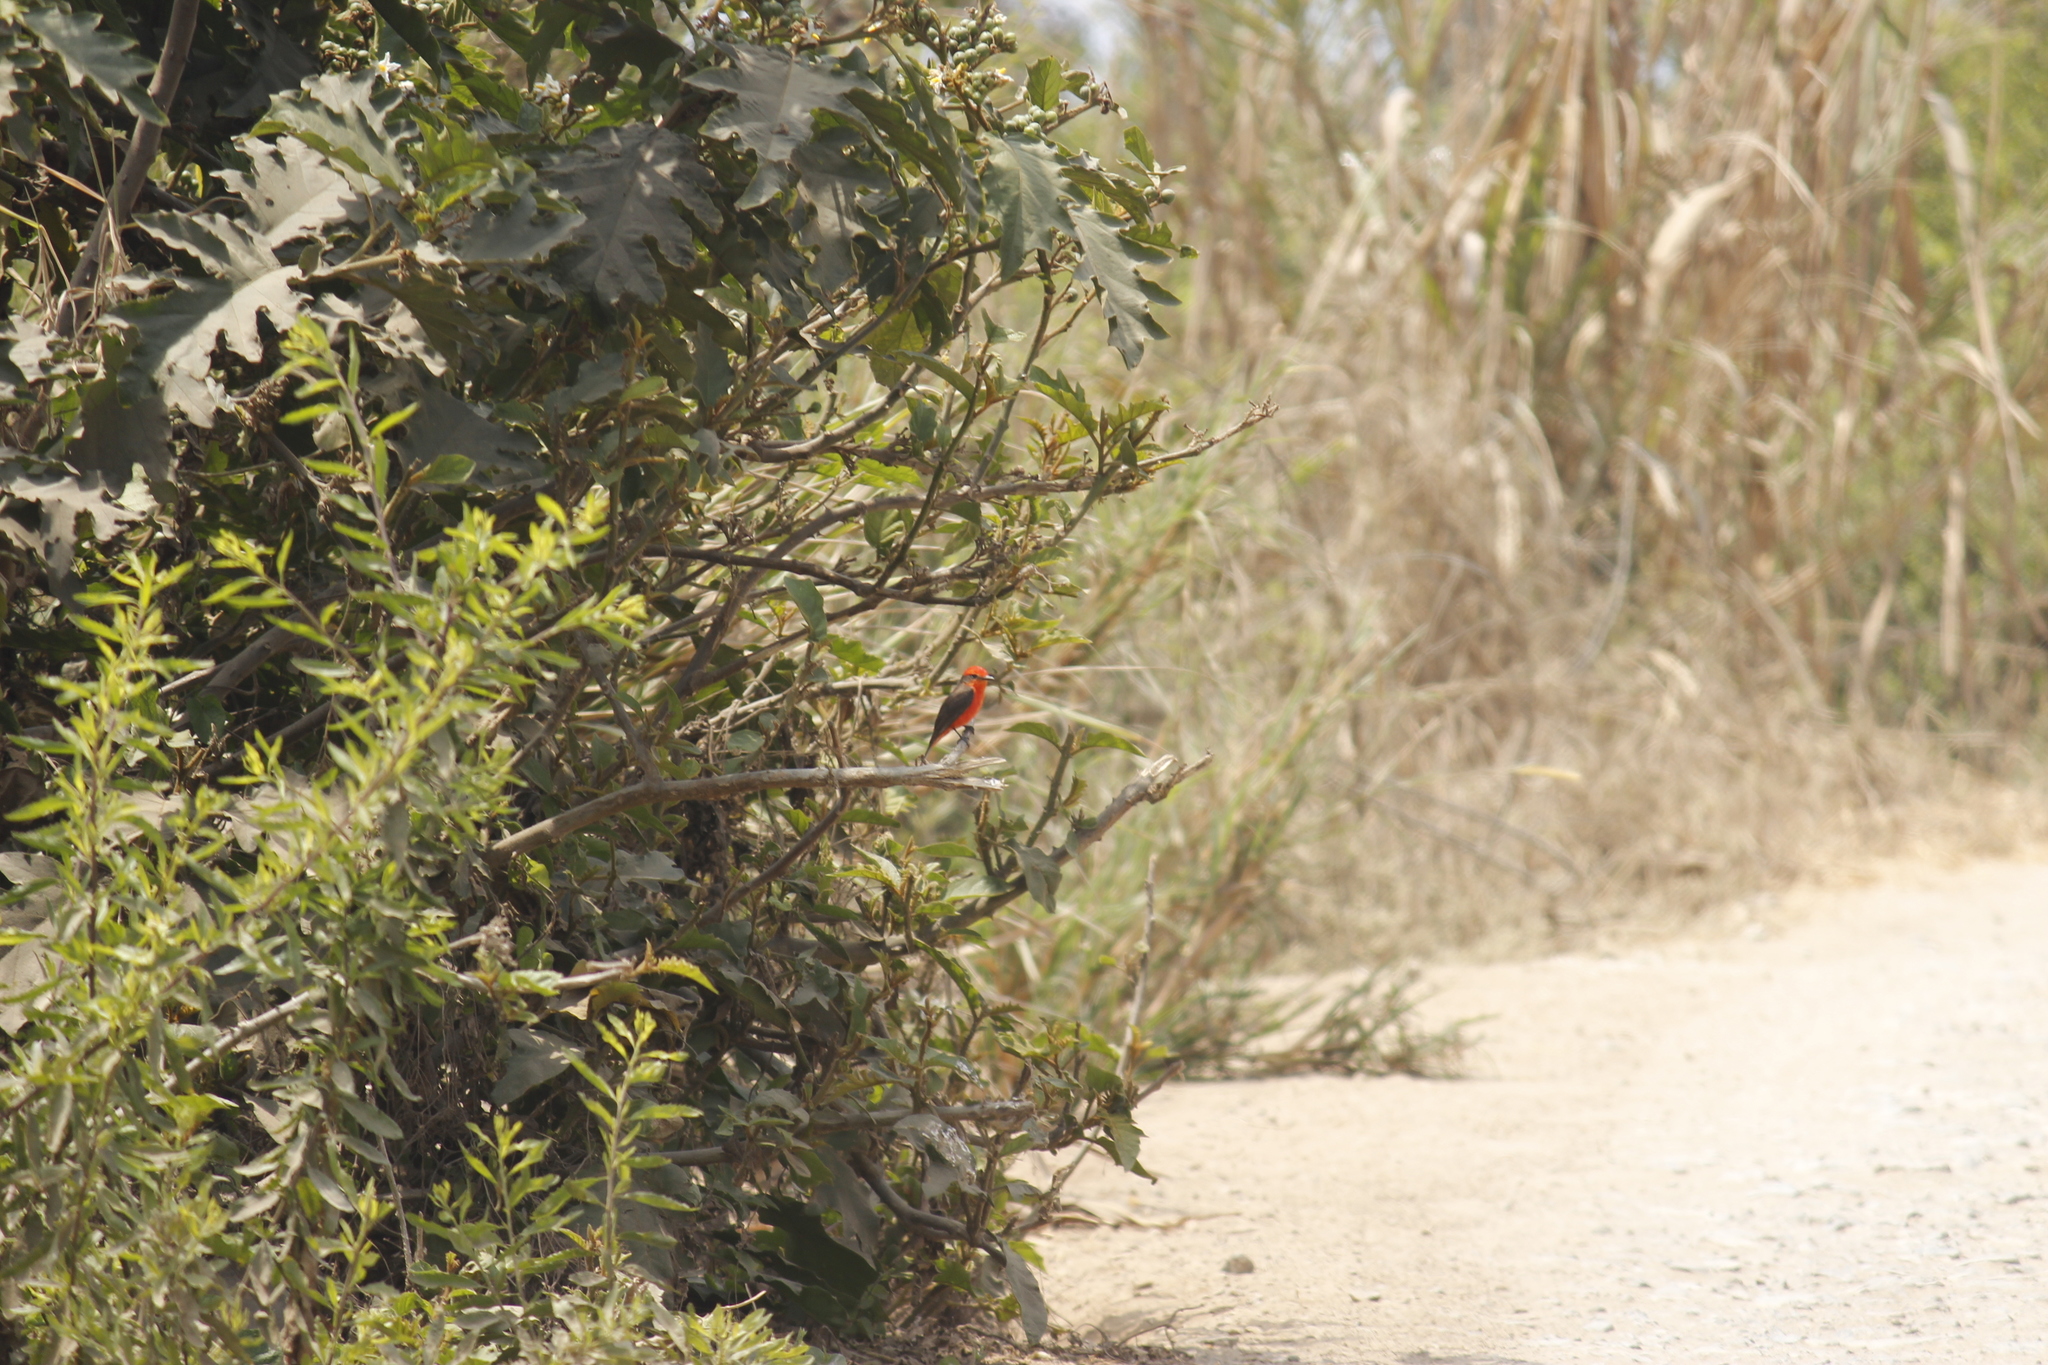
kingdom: Animalia
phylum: Chordata
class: Aves
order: Passeriformes
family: Tyrannidae
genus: Pyrocephalus
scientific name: Pyrocephalus rubinus
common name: Vermilion flycatcher
